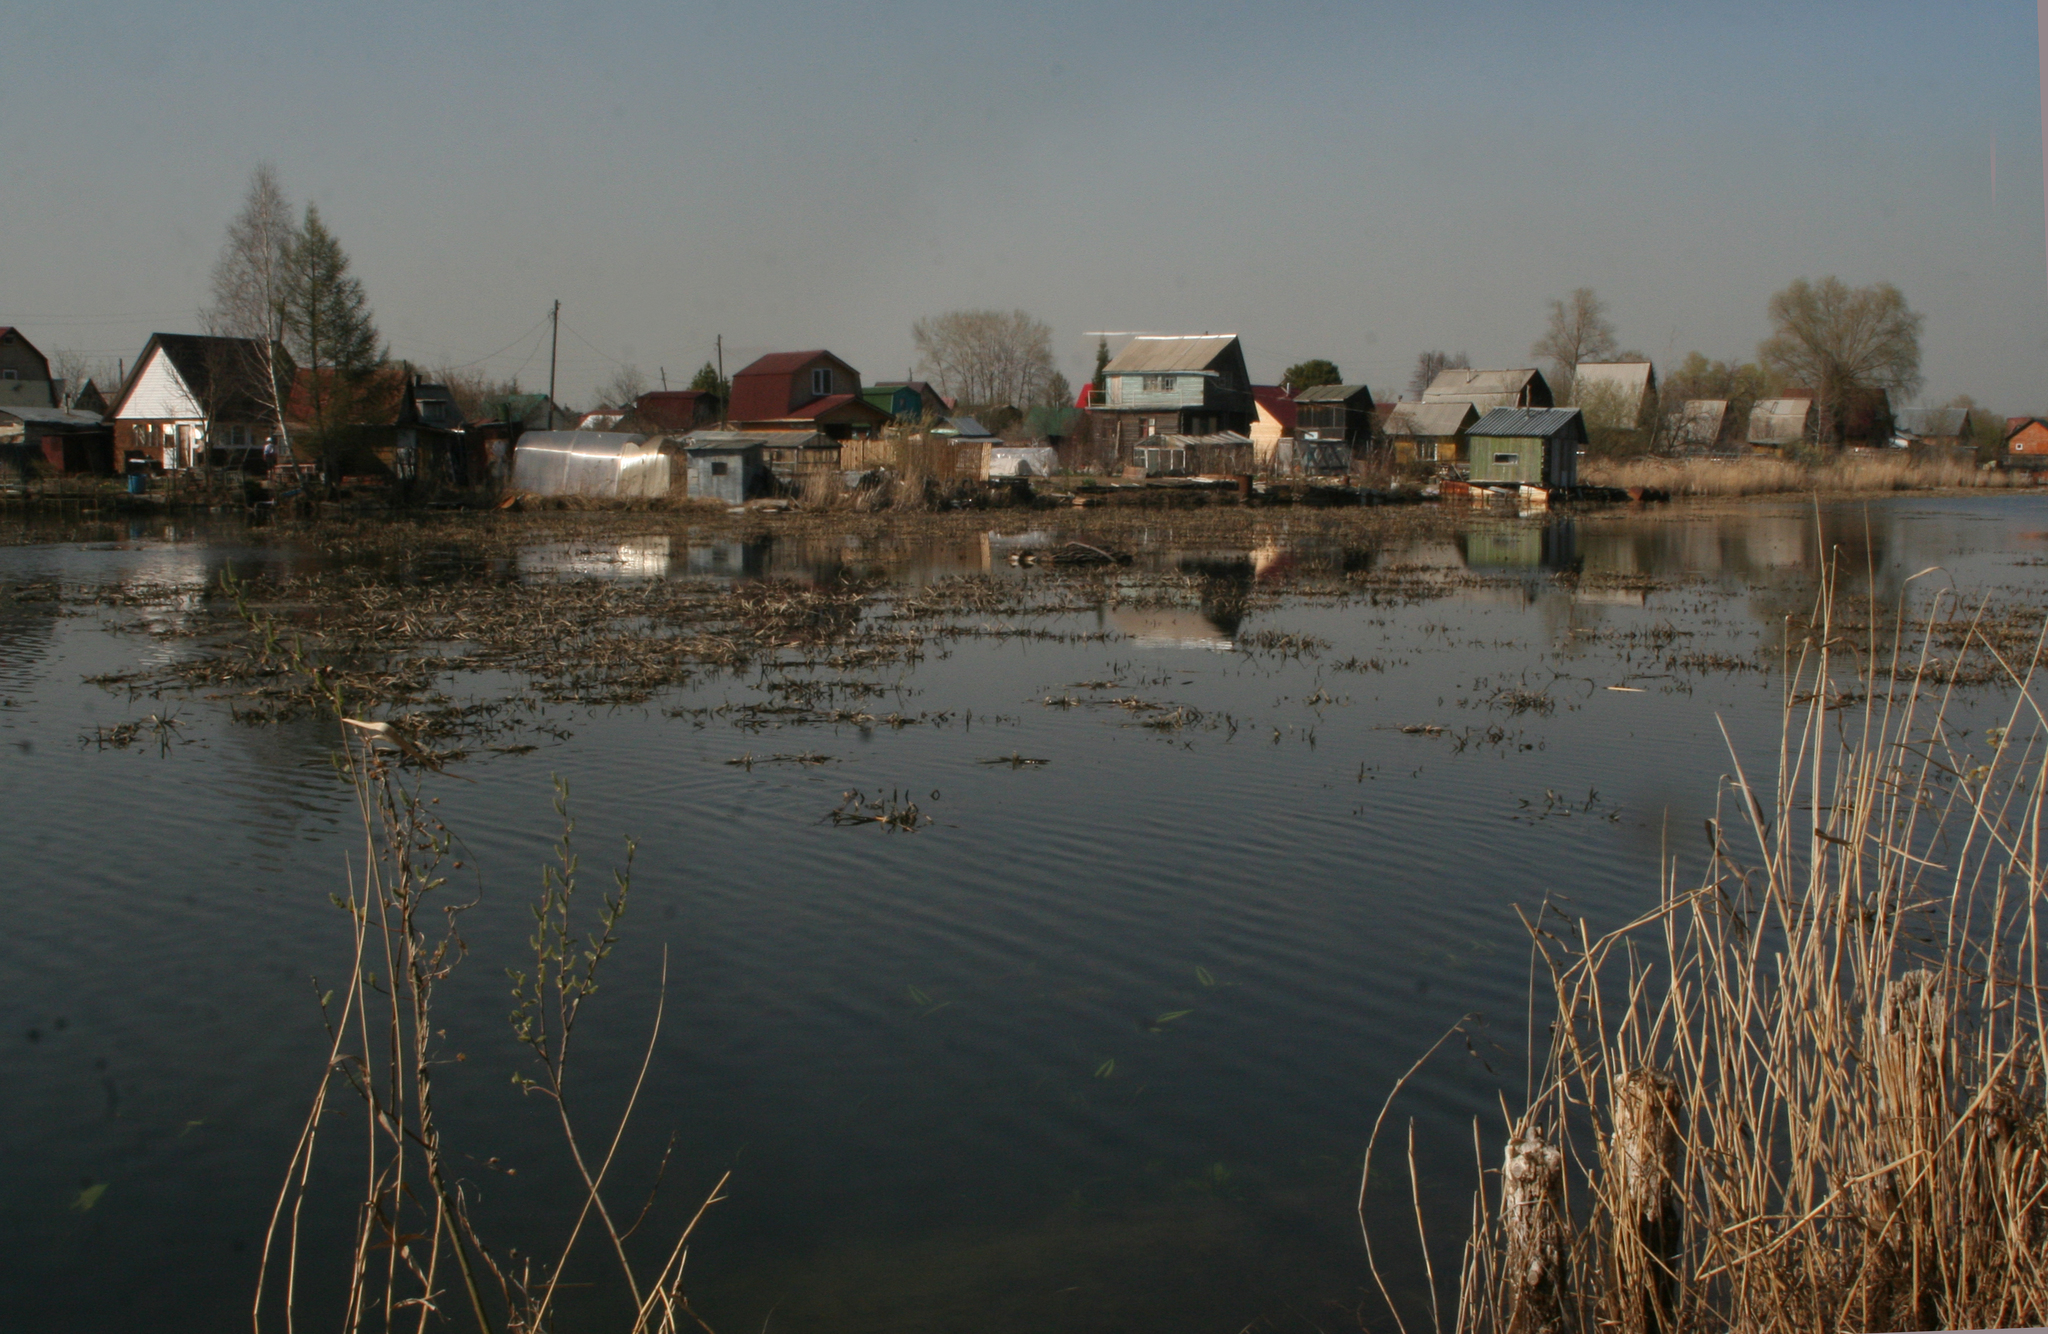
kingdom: Plantae
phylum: Tracheophyta
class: Liliopsida
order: Poales
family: Poaceae
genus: Phragmites
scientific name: Phragmites australis
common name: Common reed
